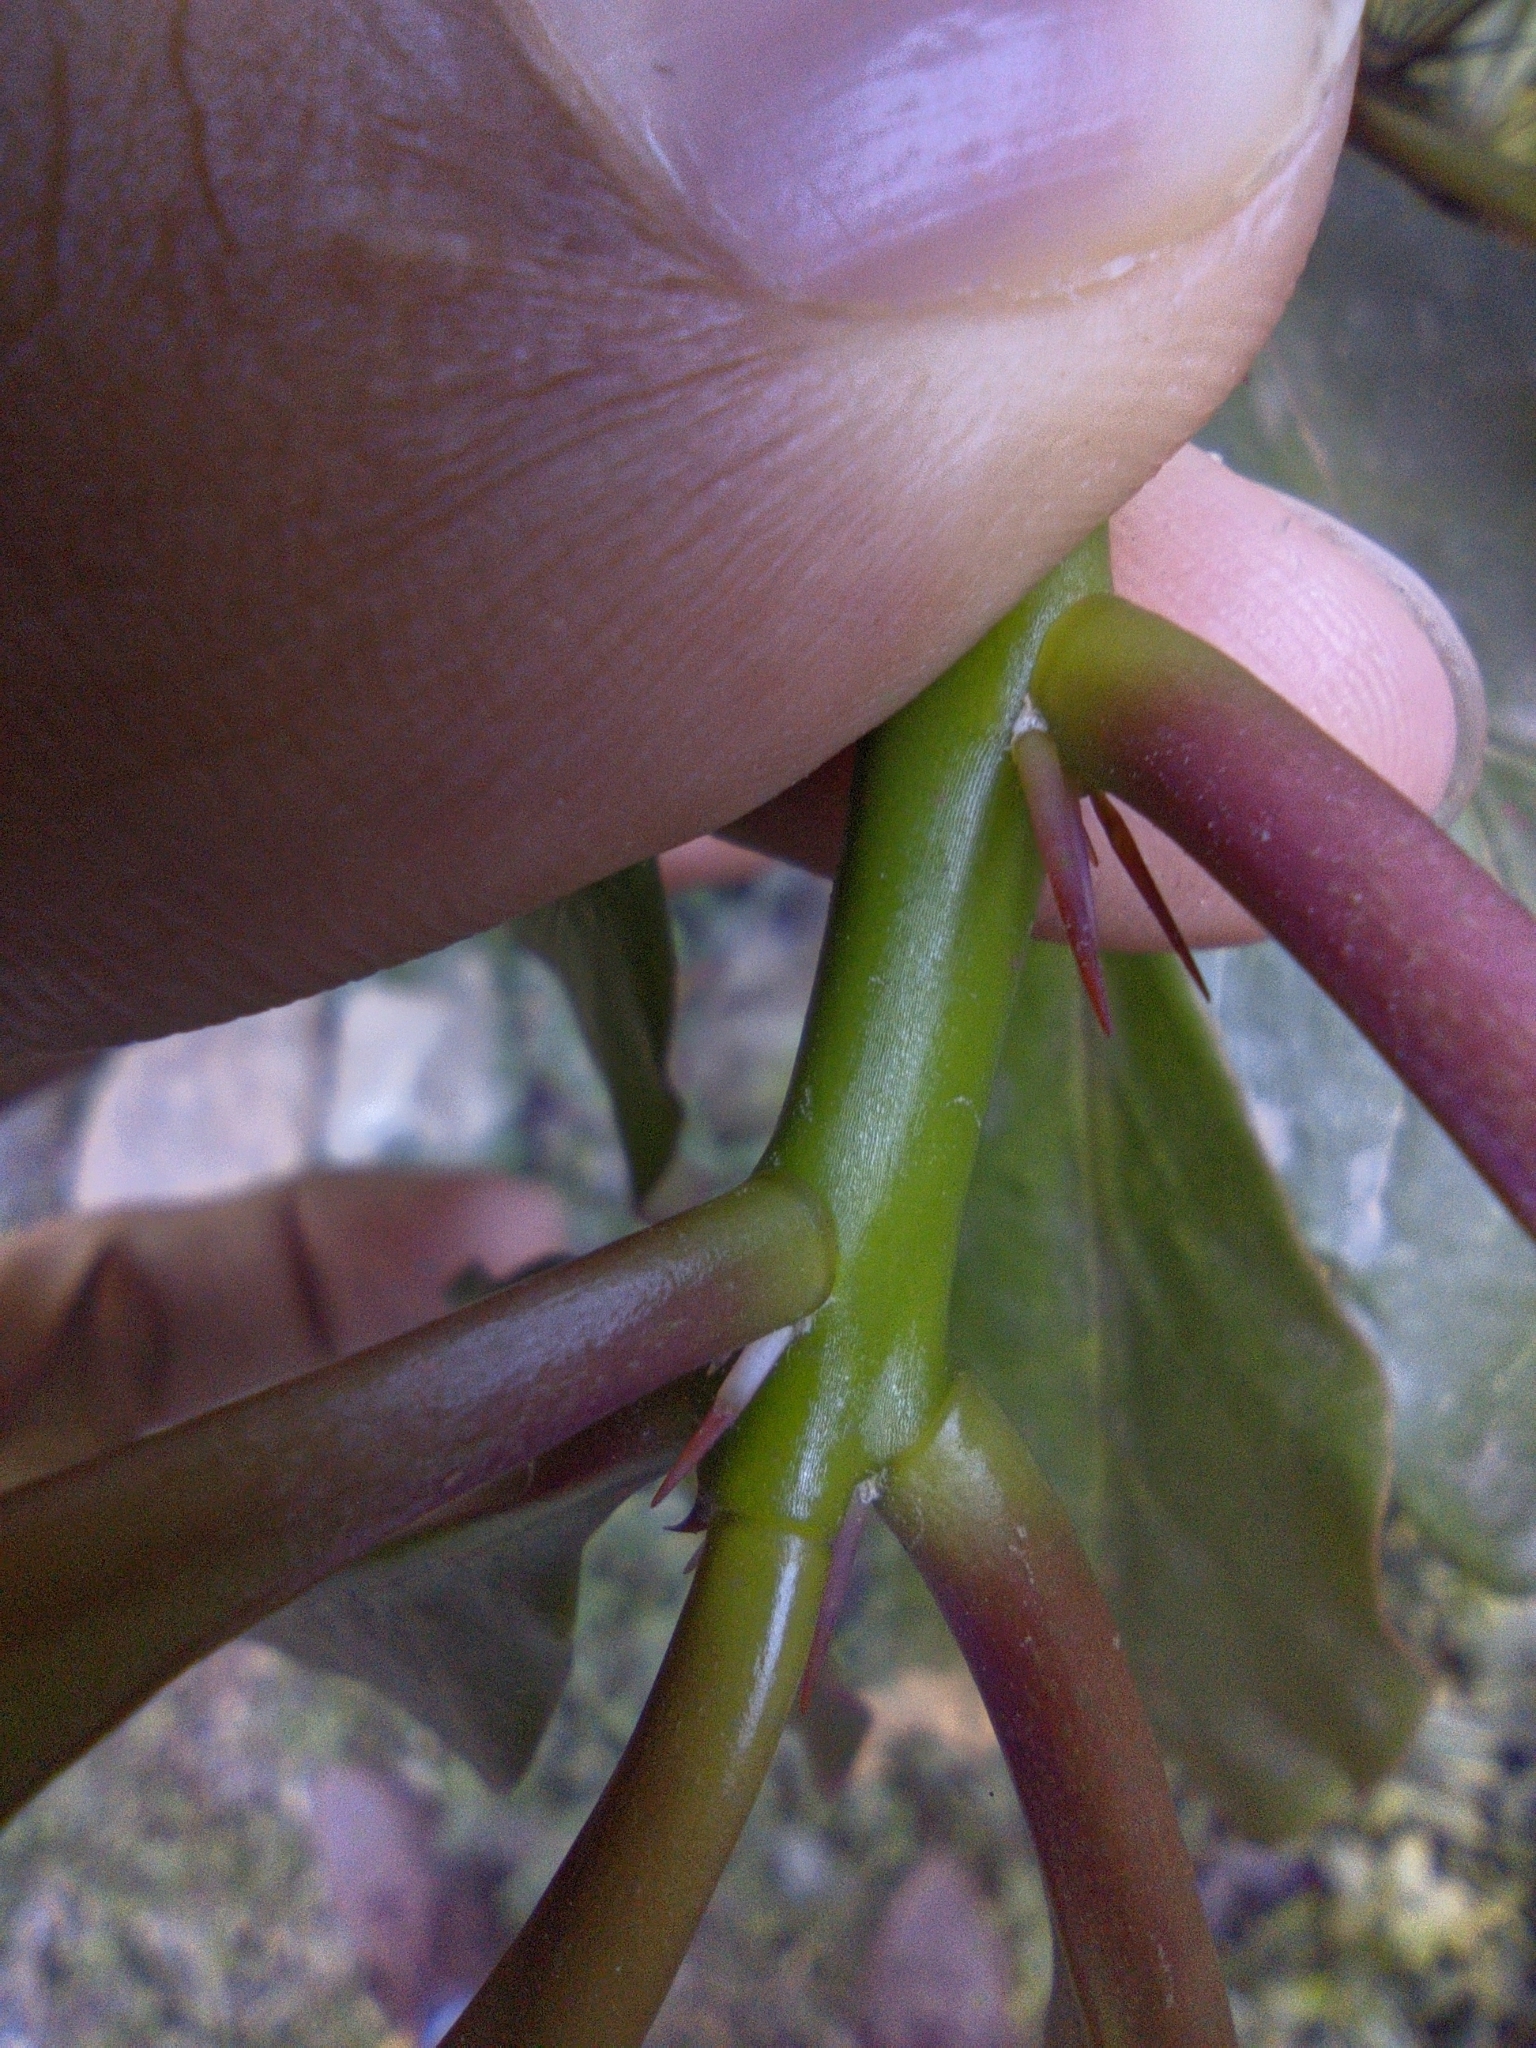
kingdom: Plantae
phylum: Tracheophyta
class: Magnoliopsida
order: Caryophyllales
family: Cactaceae
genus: Leuenbergeria
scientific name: Leuenbergeria bleo
